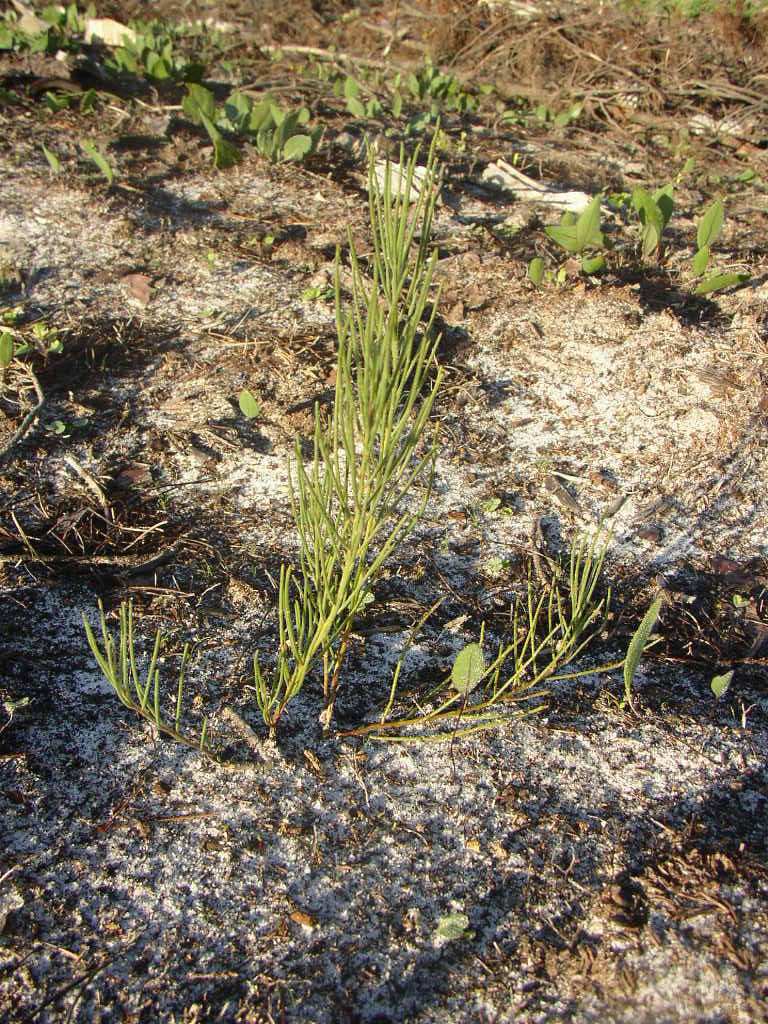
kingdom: Plantae
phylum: Tracheophyta
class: Magnoliopsida
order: Fabales
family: Fabaceae
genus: Lebeckia
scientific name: Lebeckia contaminata
